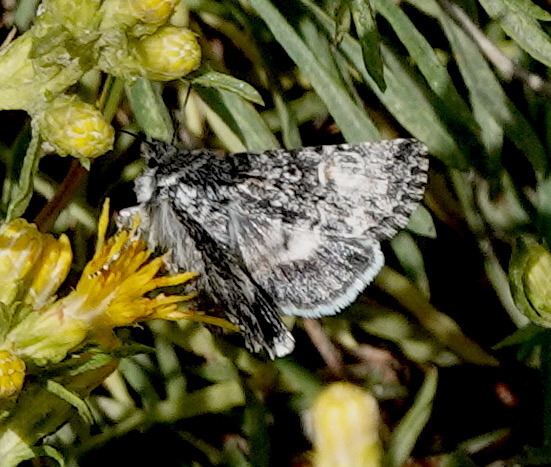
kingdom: Animalia
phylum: Arthropoda
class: Insecta
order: Lepidoptera
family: Noctuidae
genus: Sympistis
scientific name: Sympistis kelloggi
